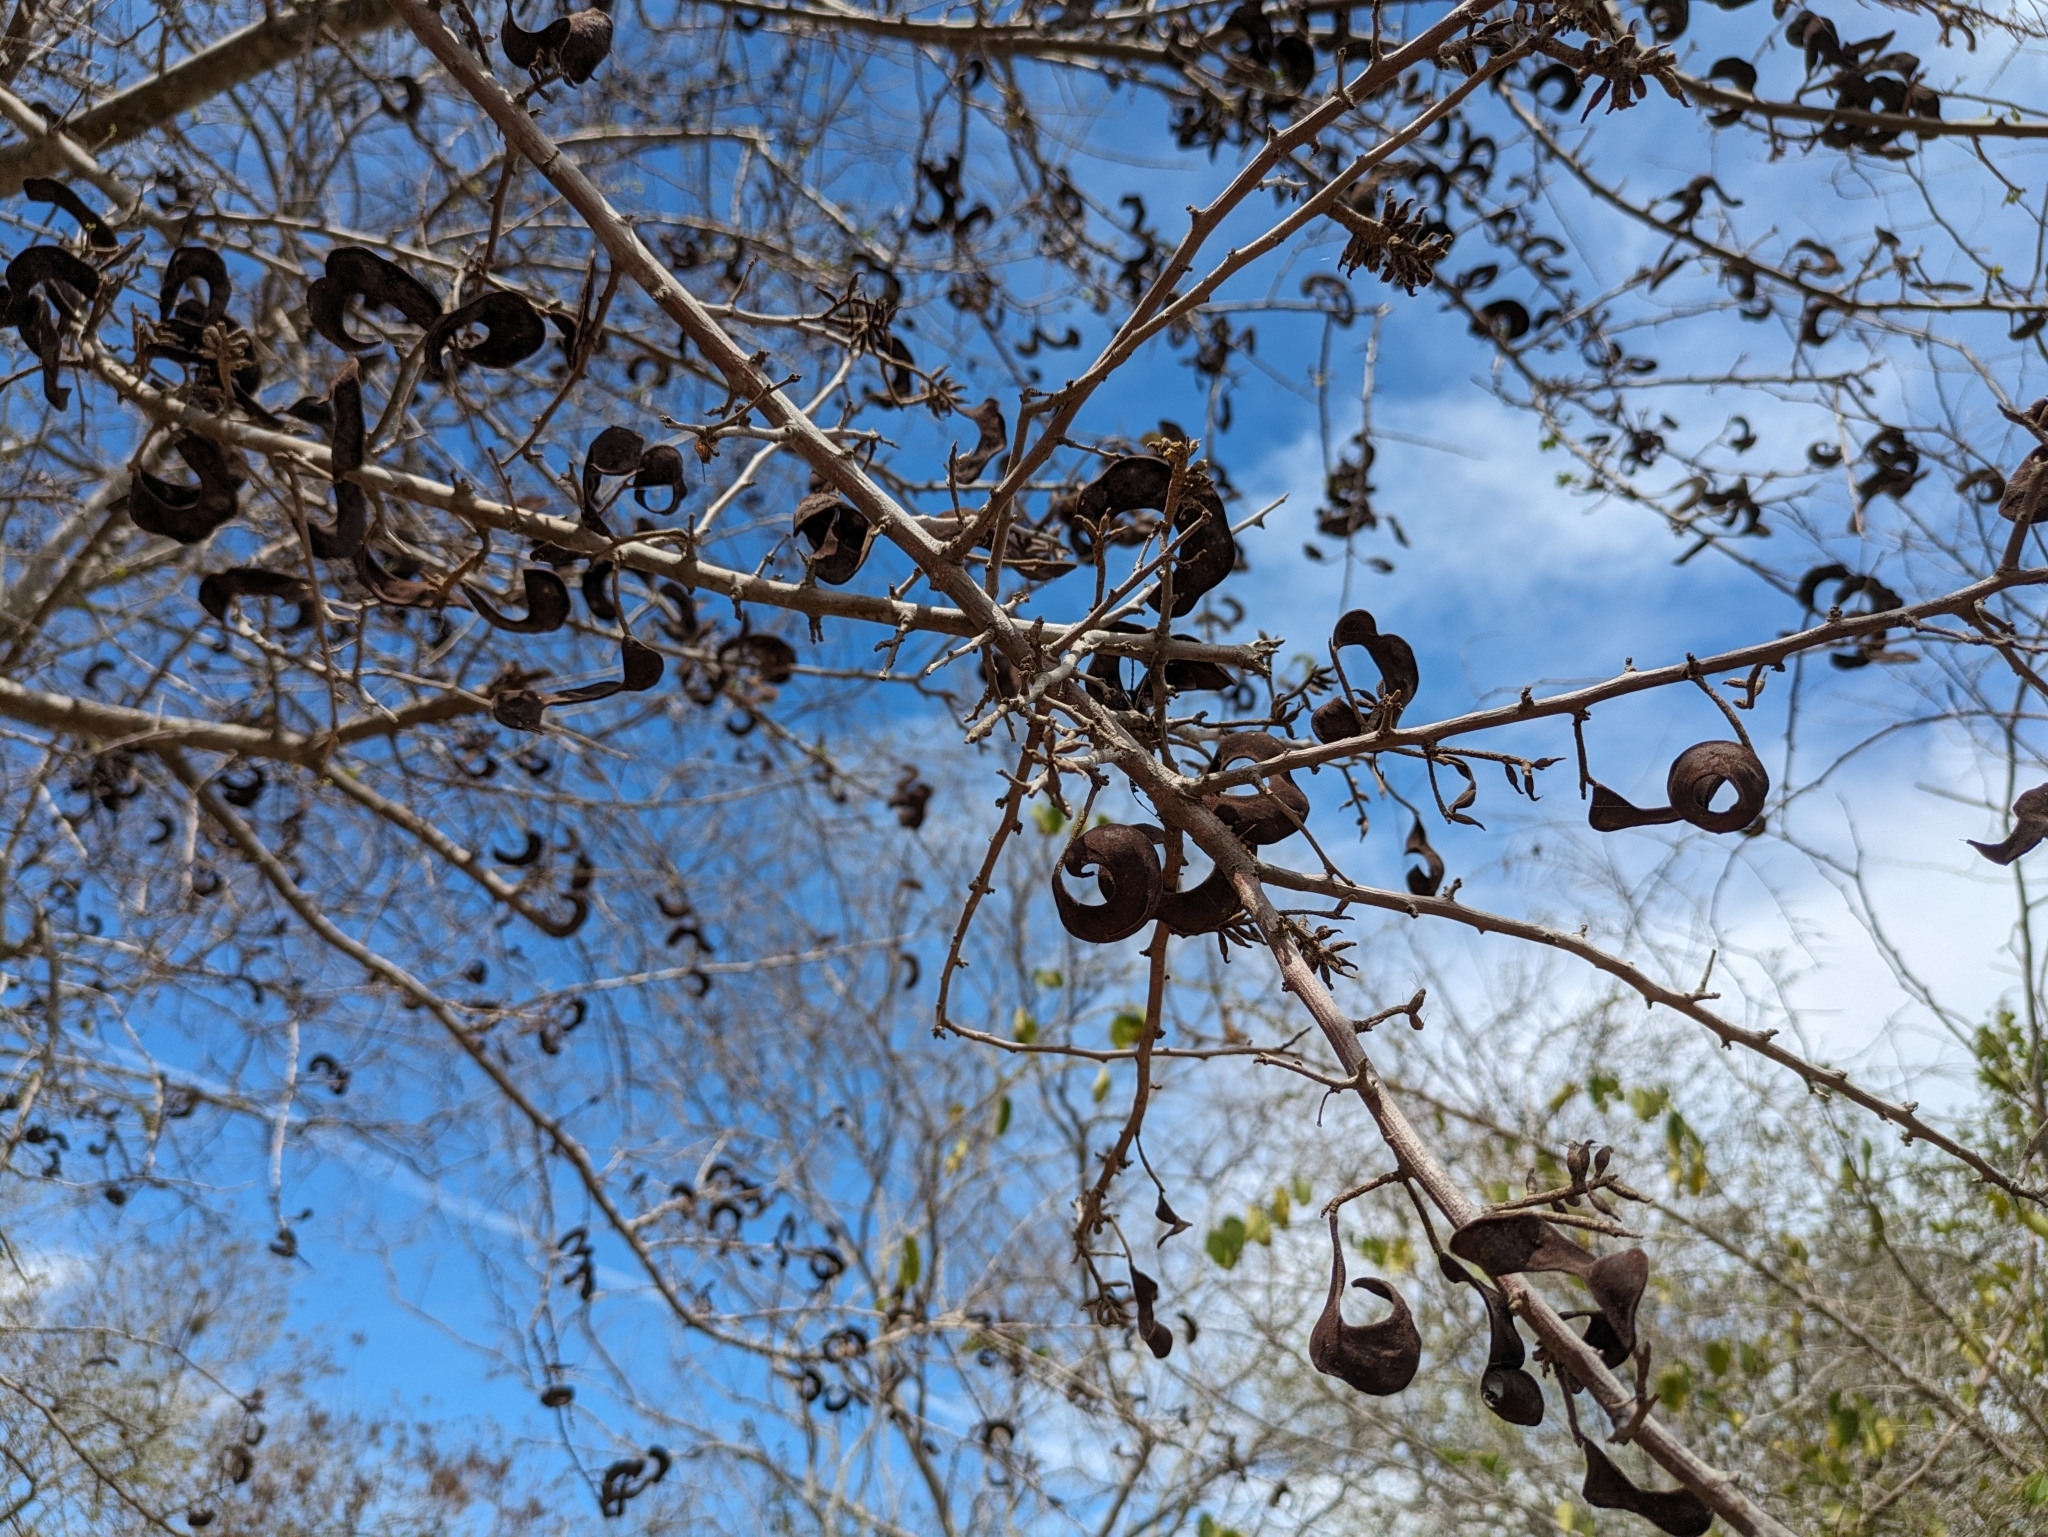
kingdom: Plantae
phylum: Tracheophyta
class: Magnoliopsida
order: Fabales
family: Fabaceae
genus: Microlobius
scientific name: Microlobius foetidus
